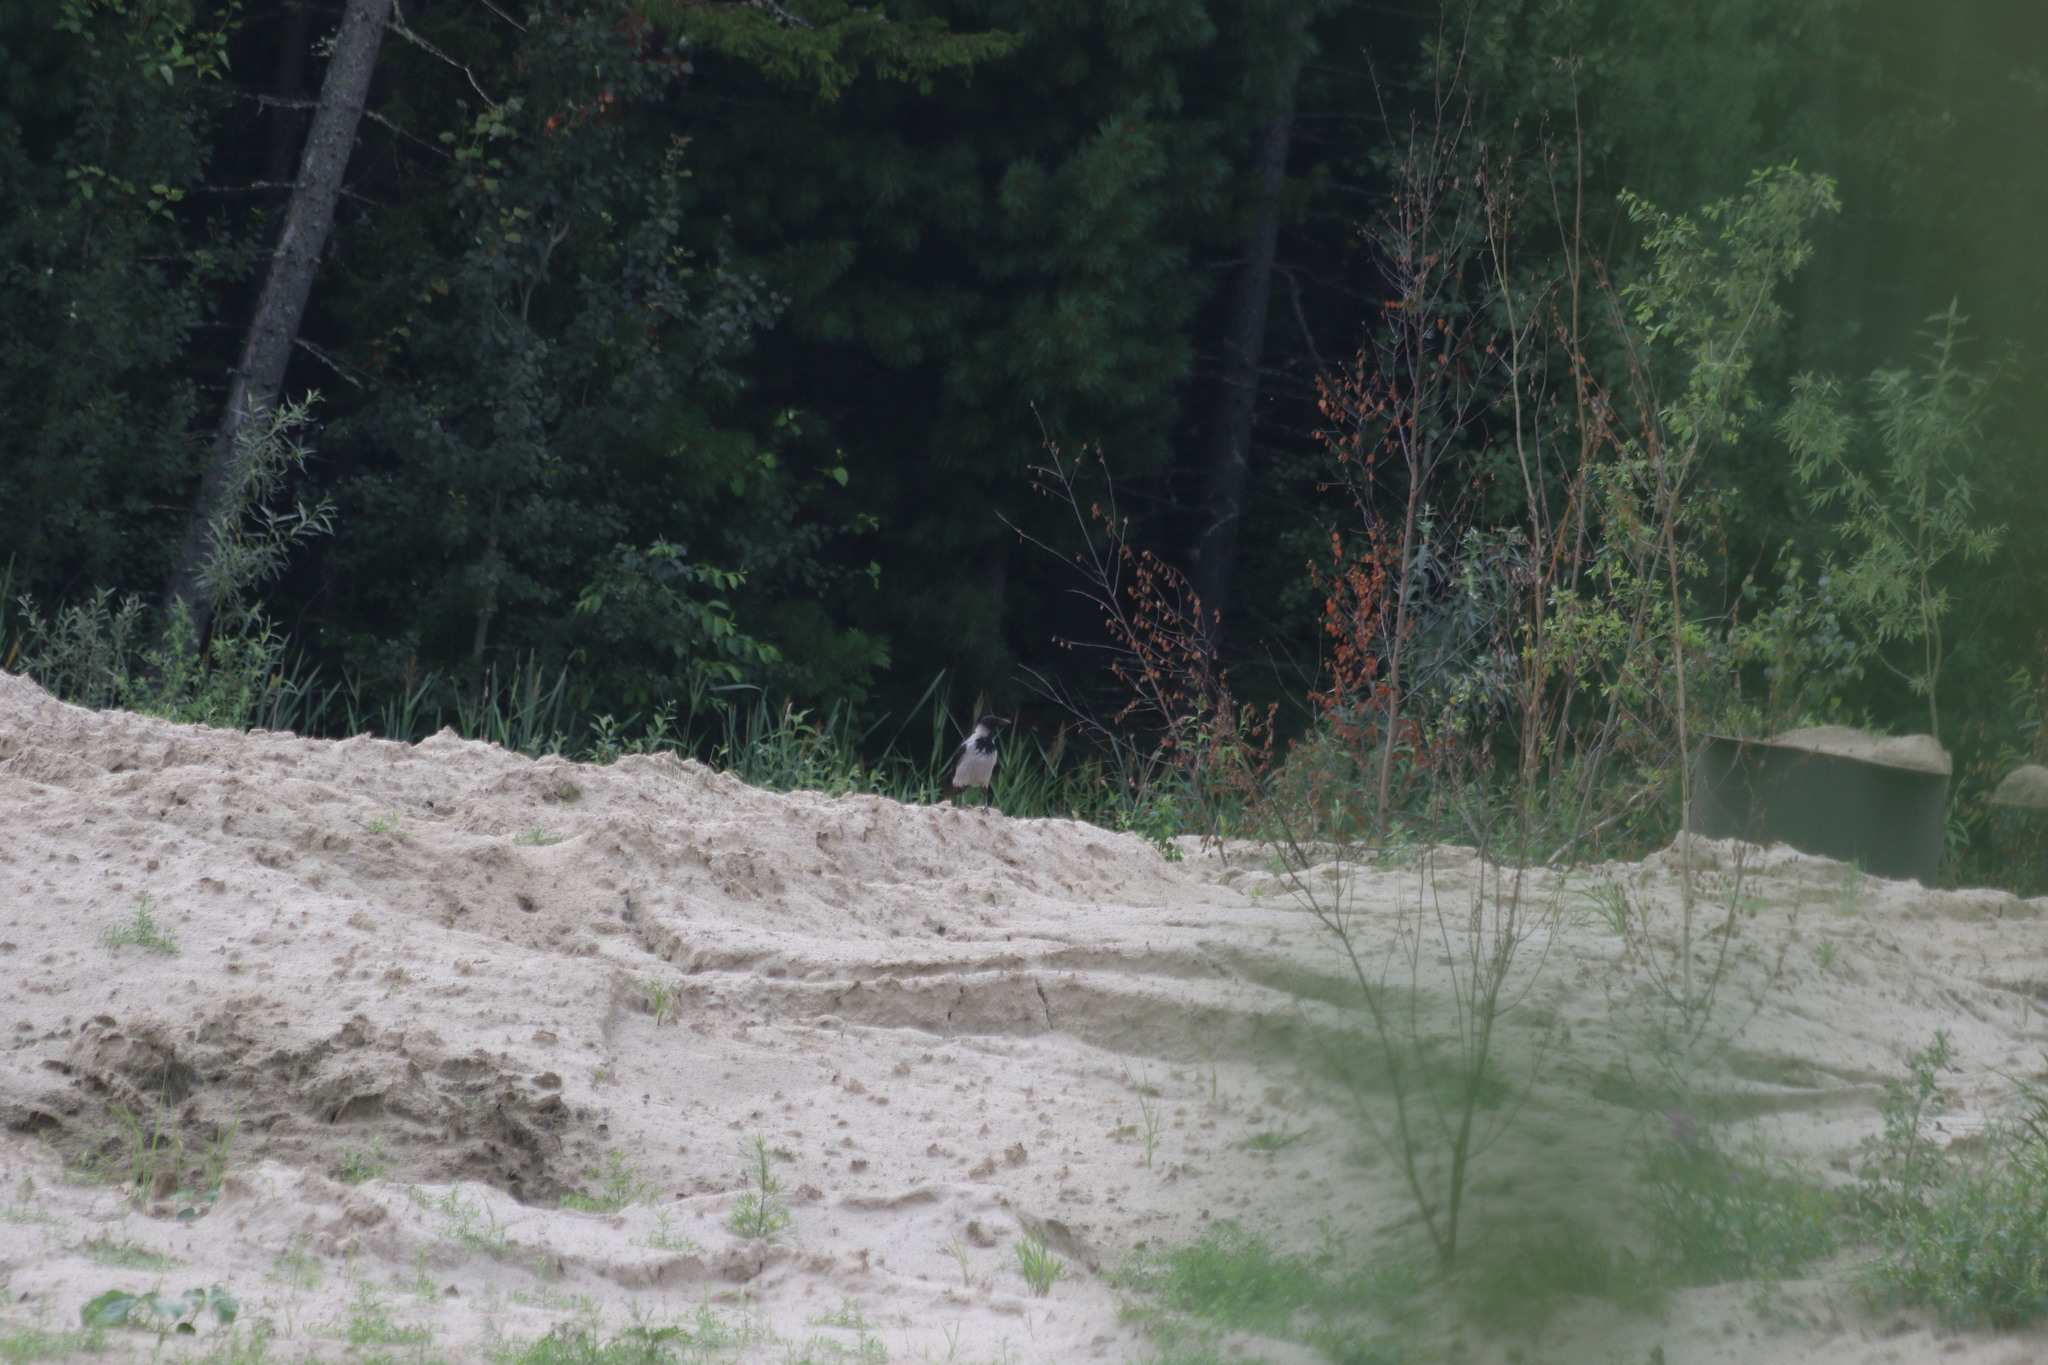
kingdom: Animalia
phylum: Chordata
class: Aves
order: Passeriformes
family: Corvidae
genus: Corvus
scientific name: Corvus cornix
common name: Hooded crow
